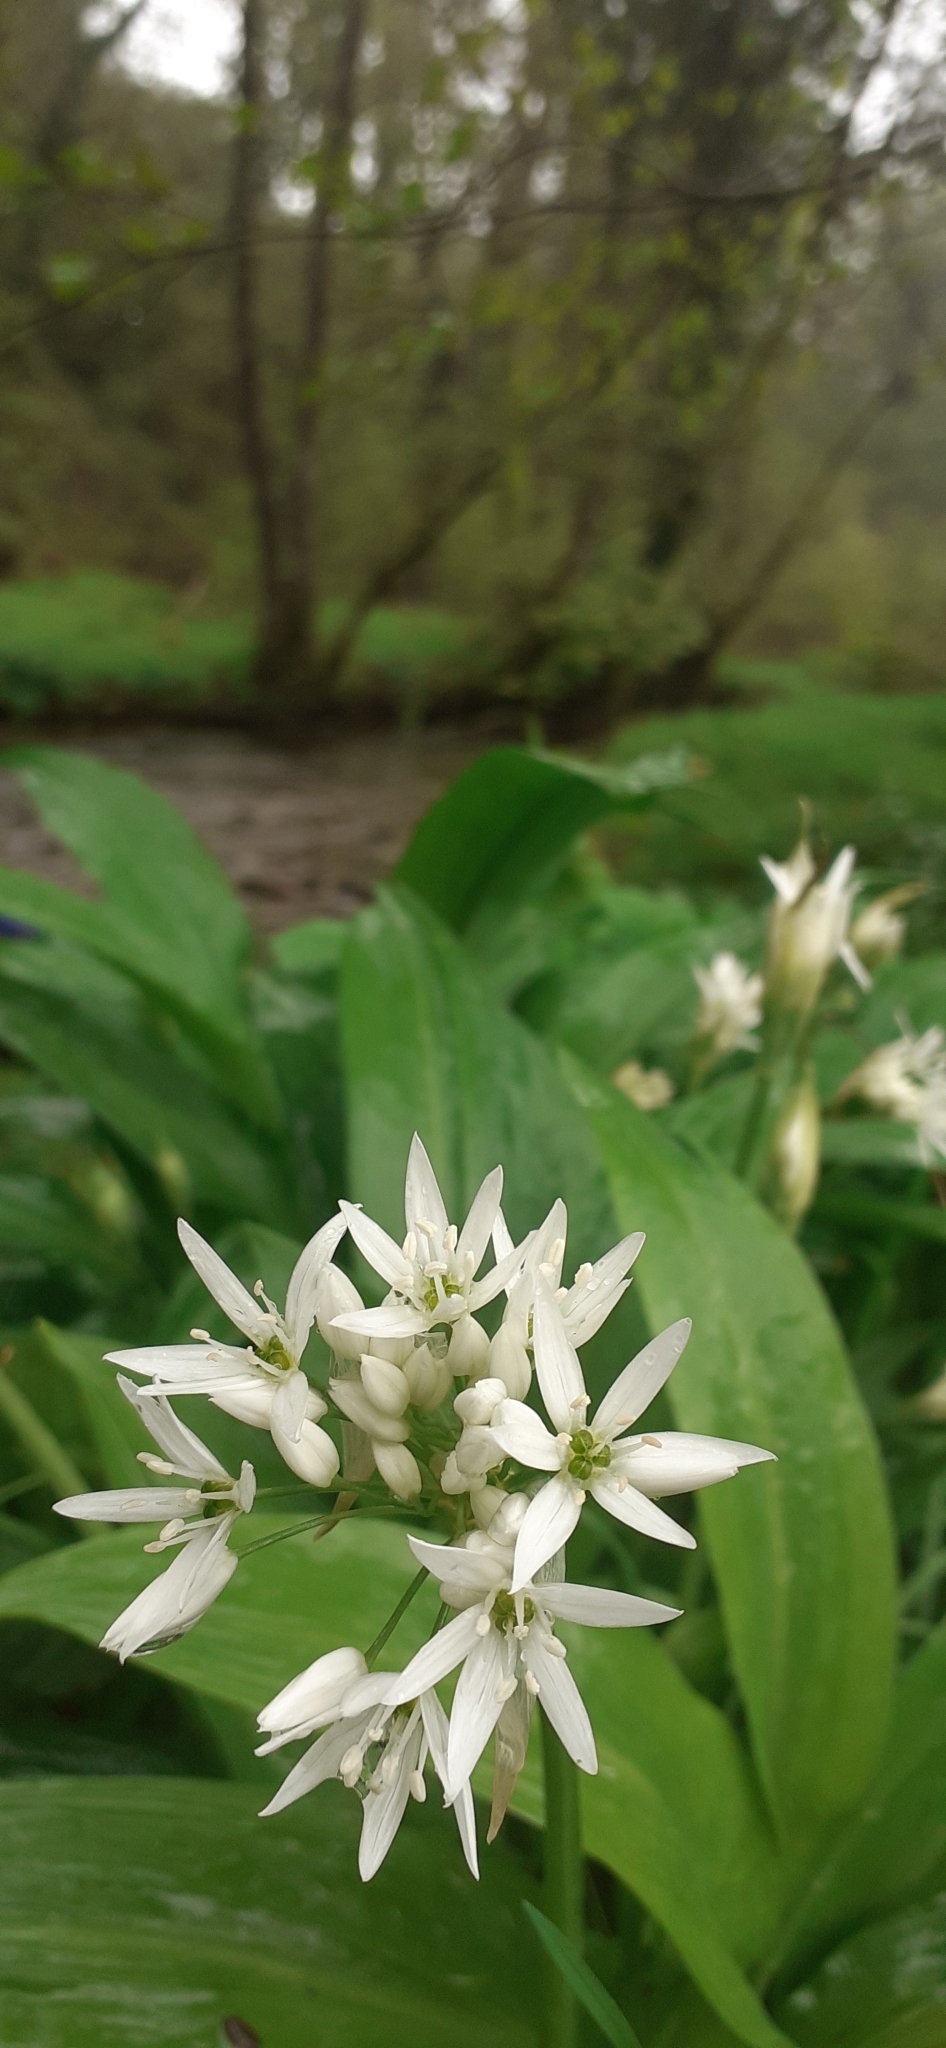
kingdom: Plantae
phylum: Tracheophyta
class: Liliopsida
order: Asparagales
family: Amaryllidaceae
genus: Allium
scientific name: Allium ursinum
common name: Ramsons
